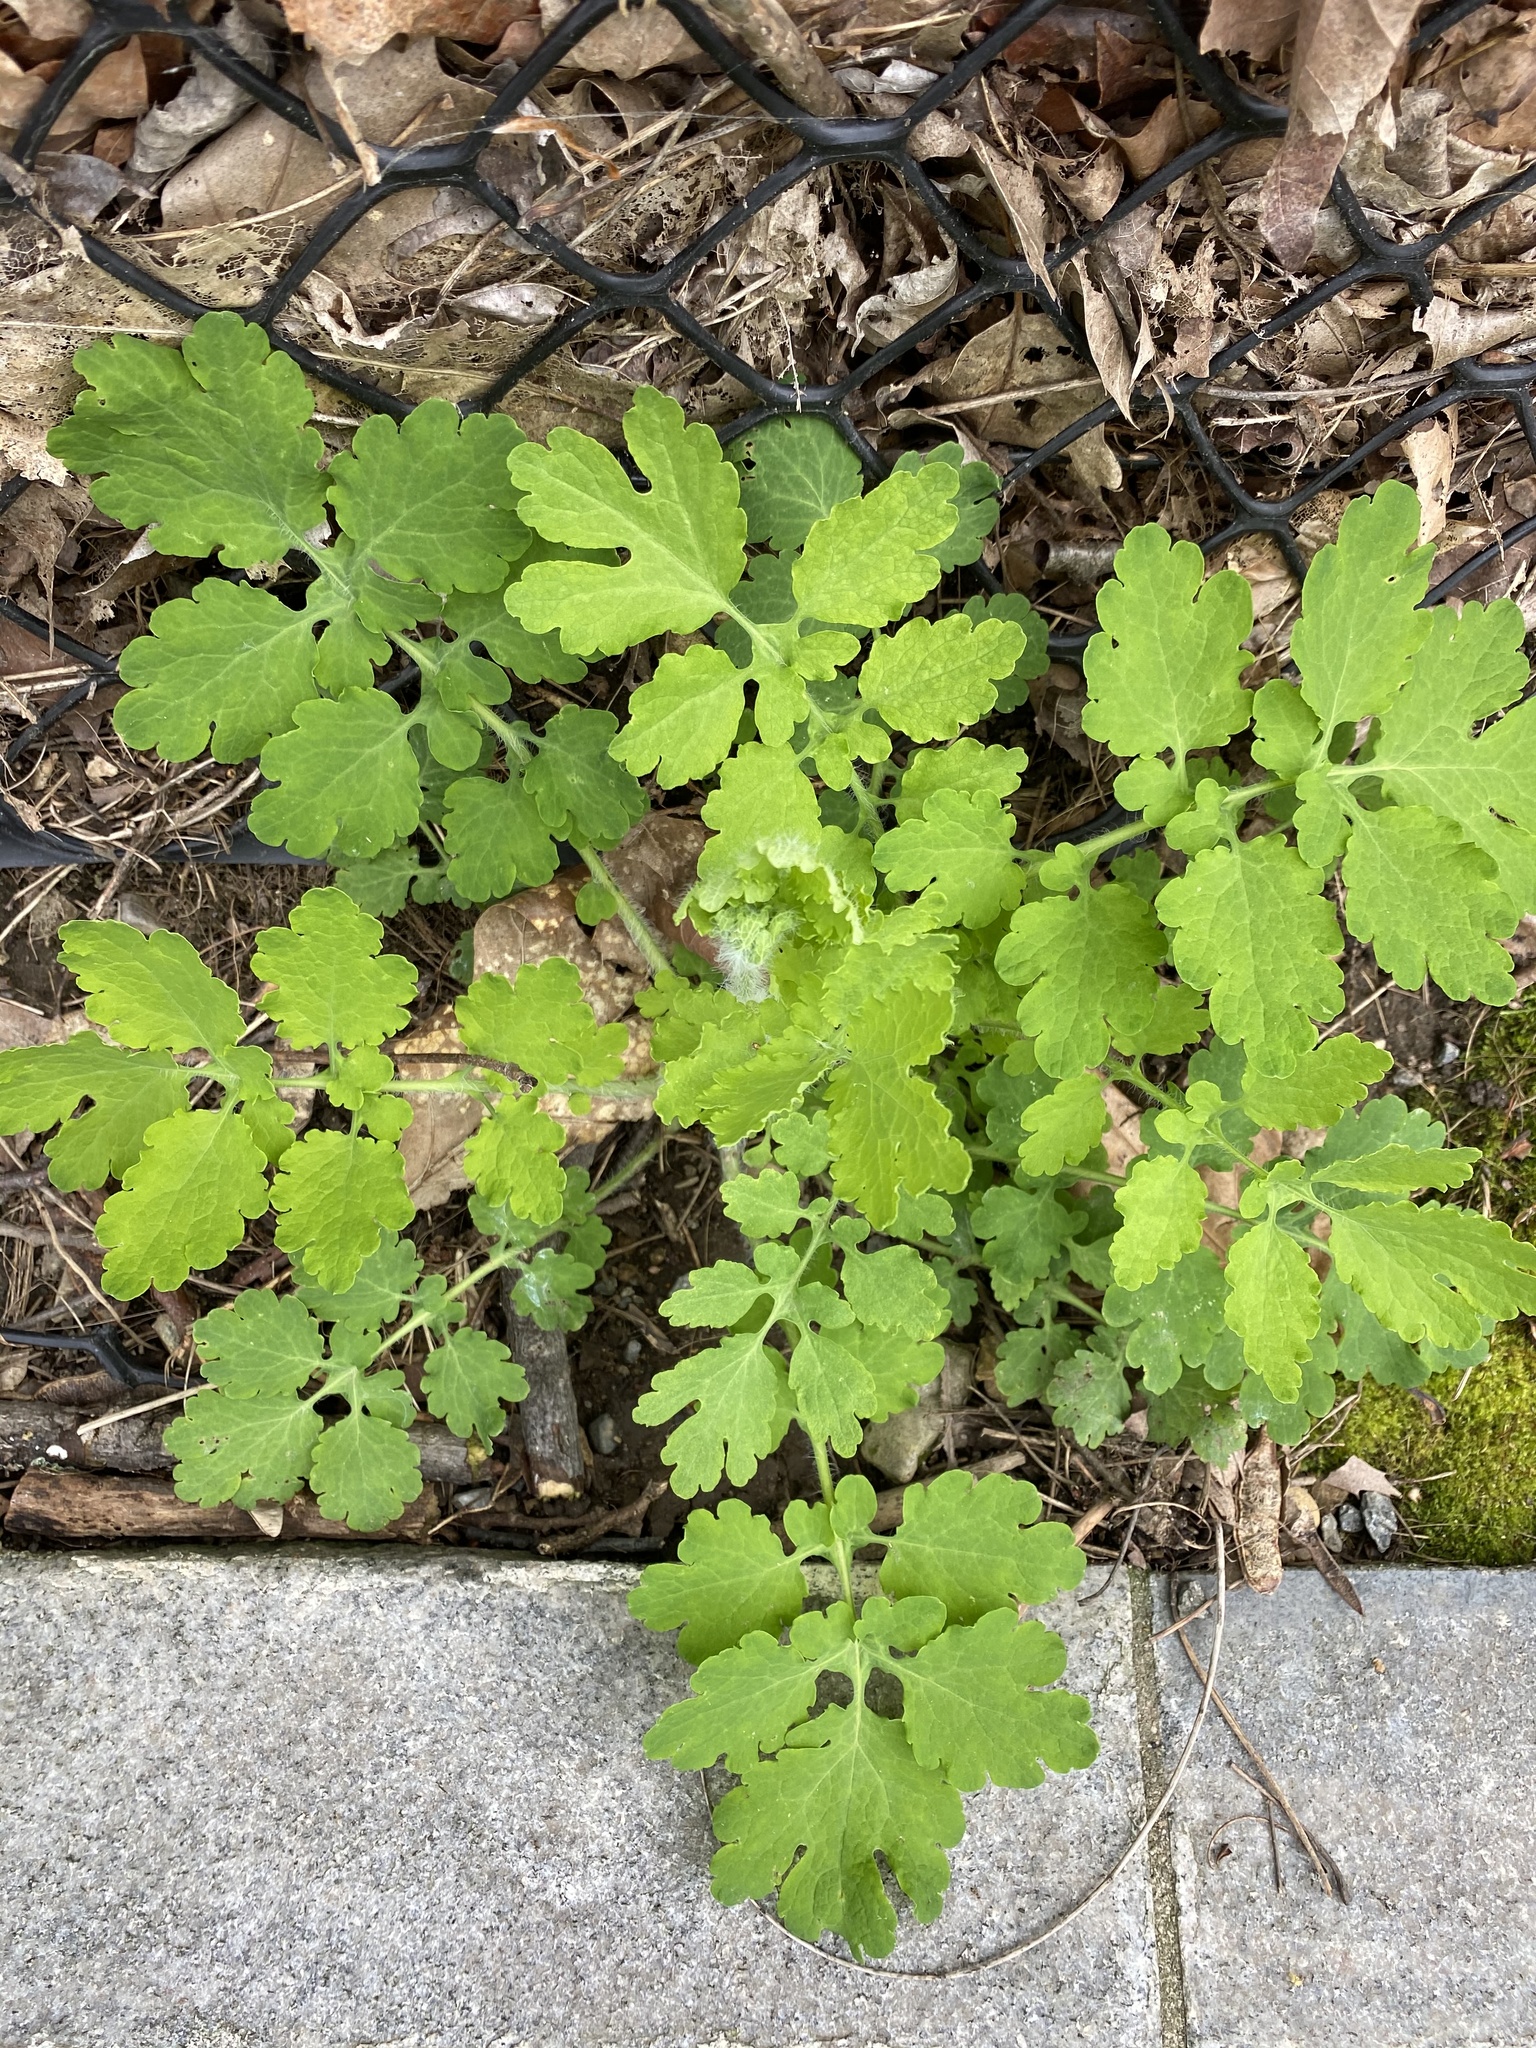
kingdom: Plantae
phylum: Tracheophyta
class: Magnoliopsida
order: Ranunculales
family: Papaveraceae
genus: Chelidonium
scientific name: Chelidonium majus
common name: Greater celandine
